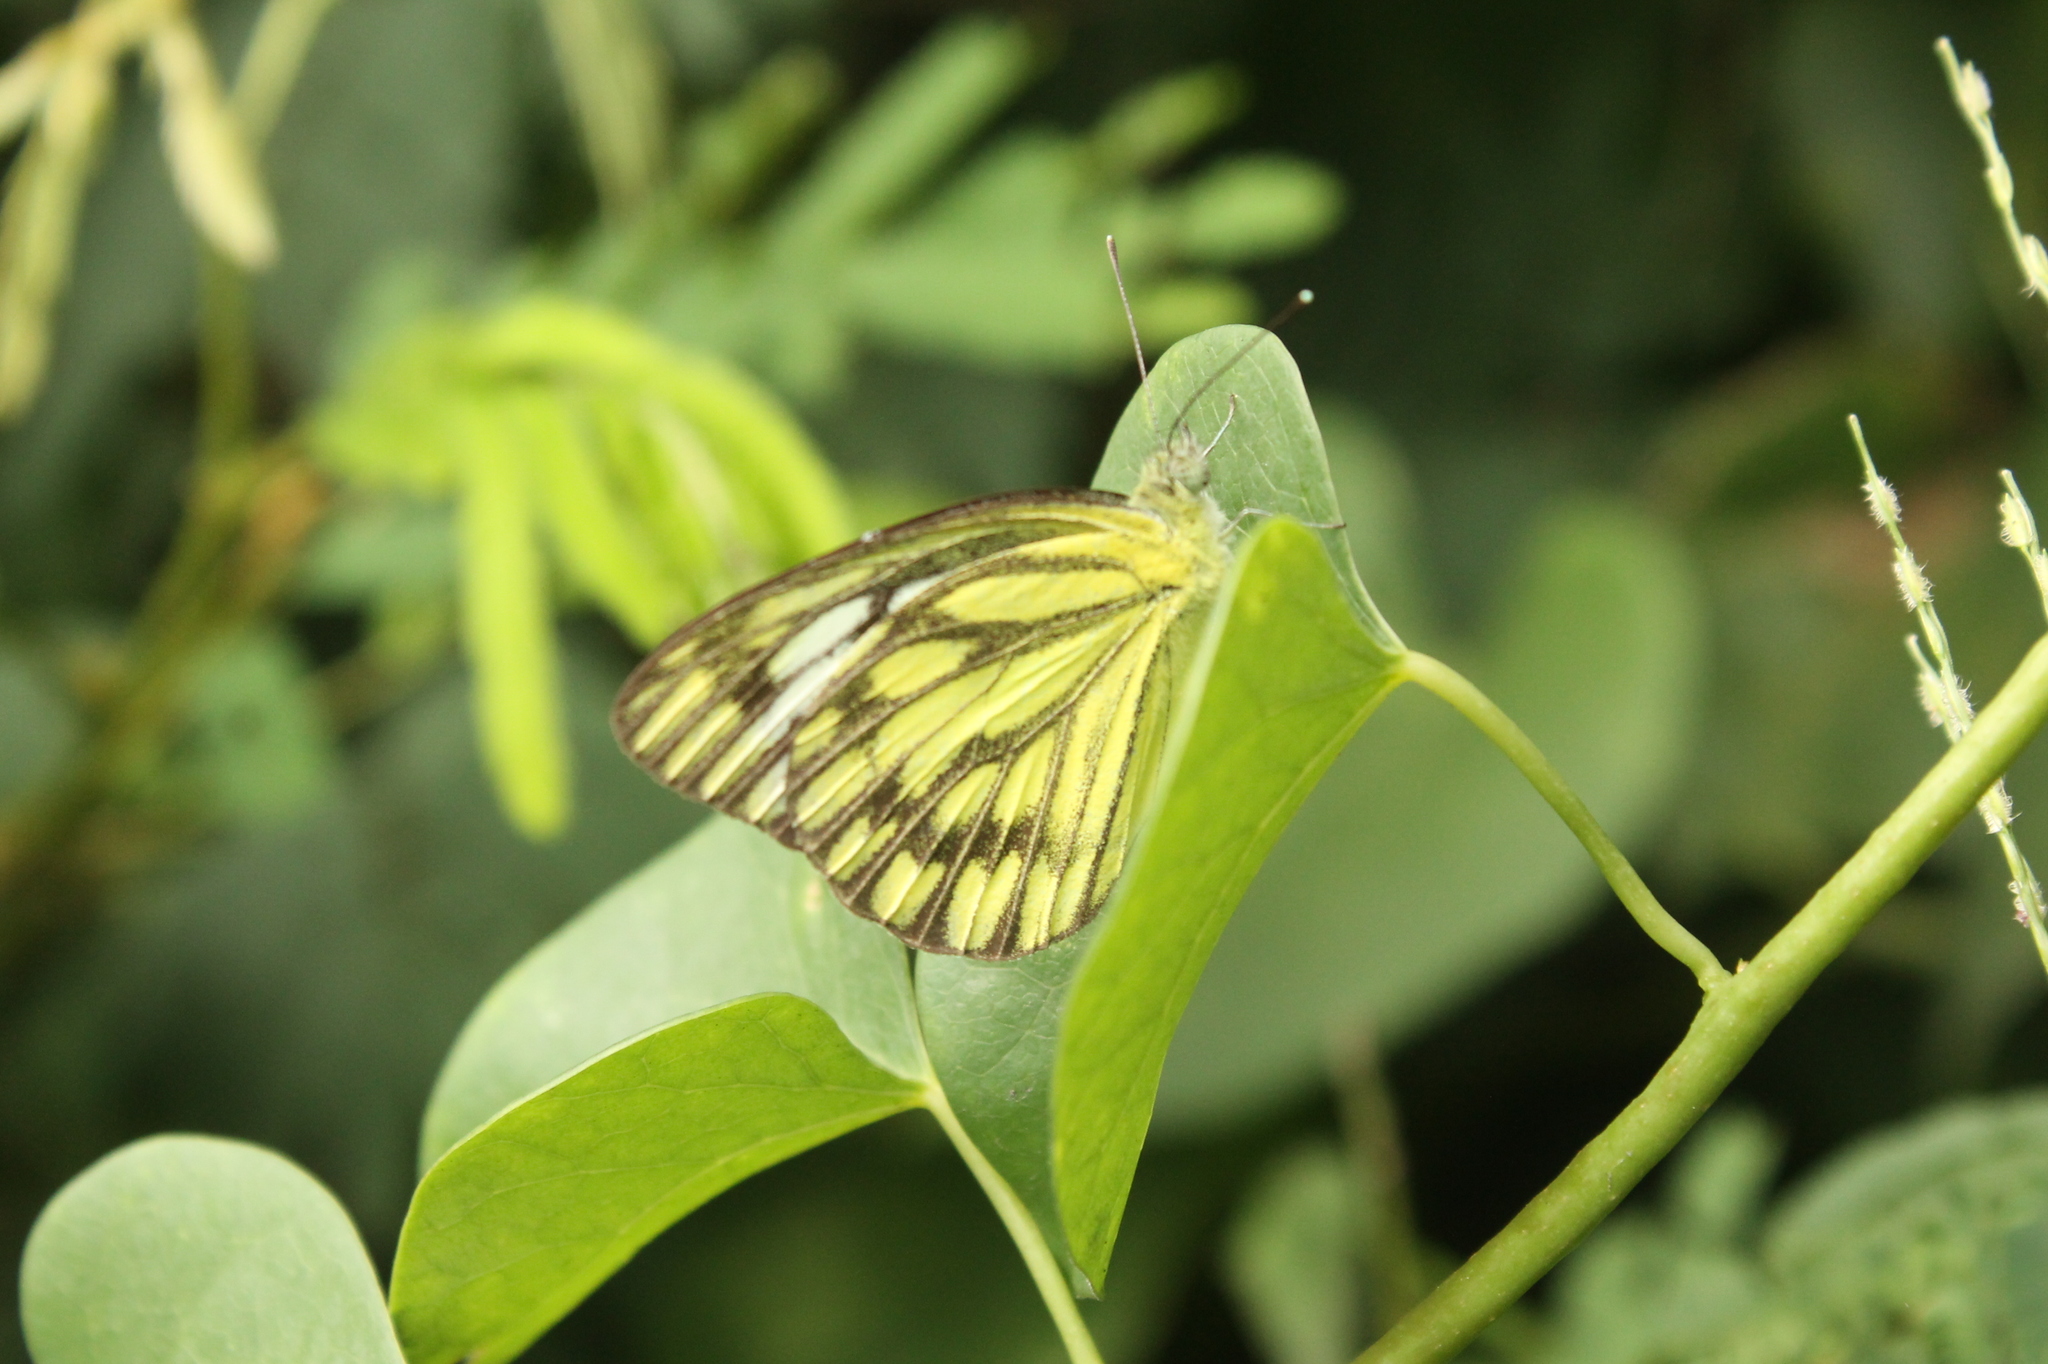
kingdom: Animalia
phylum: Arthropoda
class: Insecta
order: Lepidoptera
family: Pieridae
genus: Cepora
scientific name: Cepora nerissa
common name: Common gull
